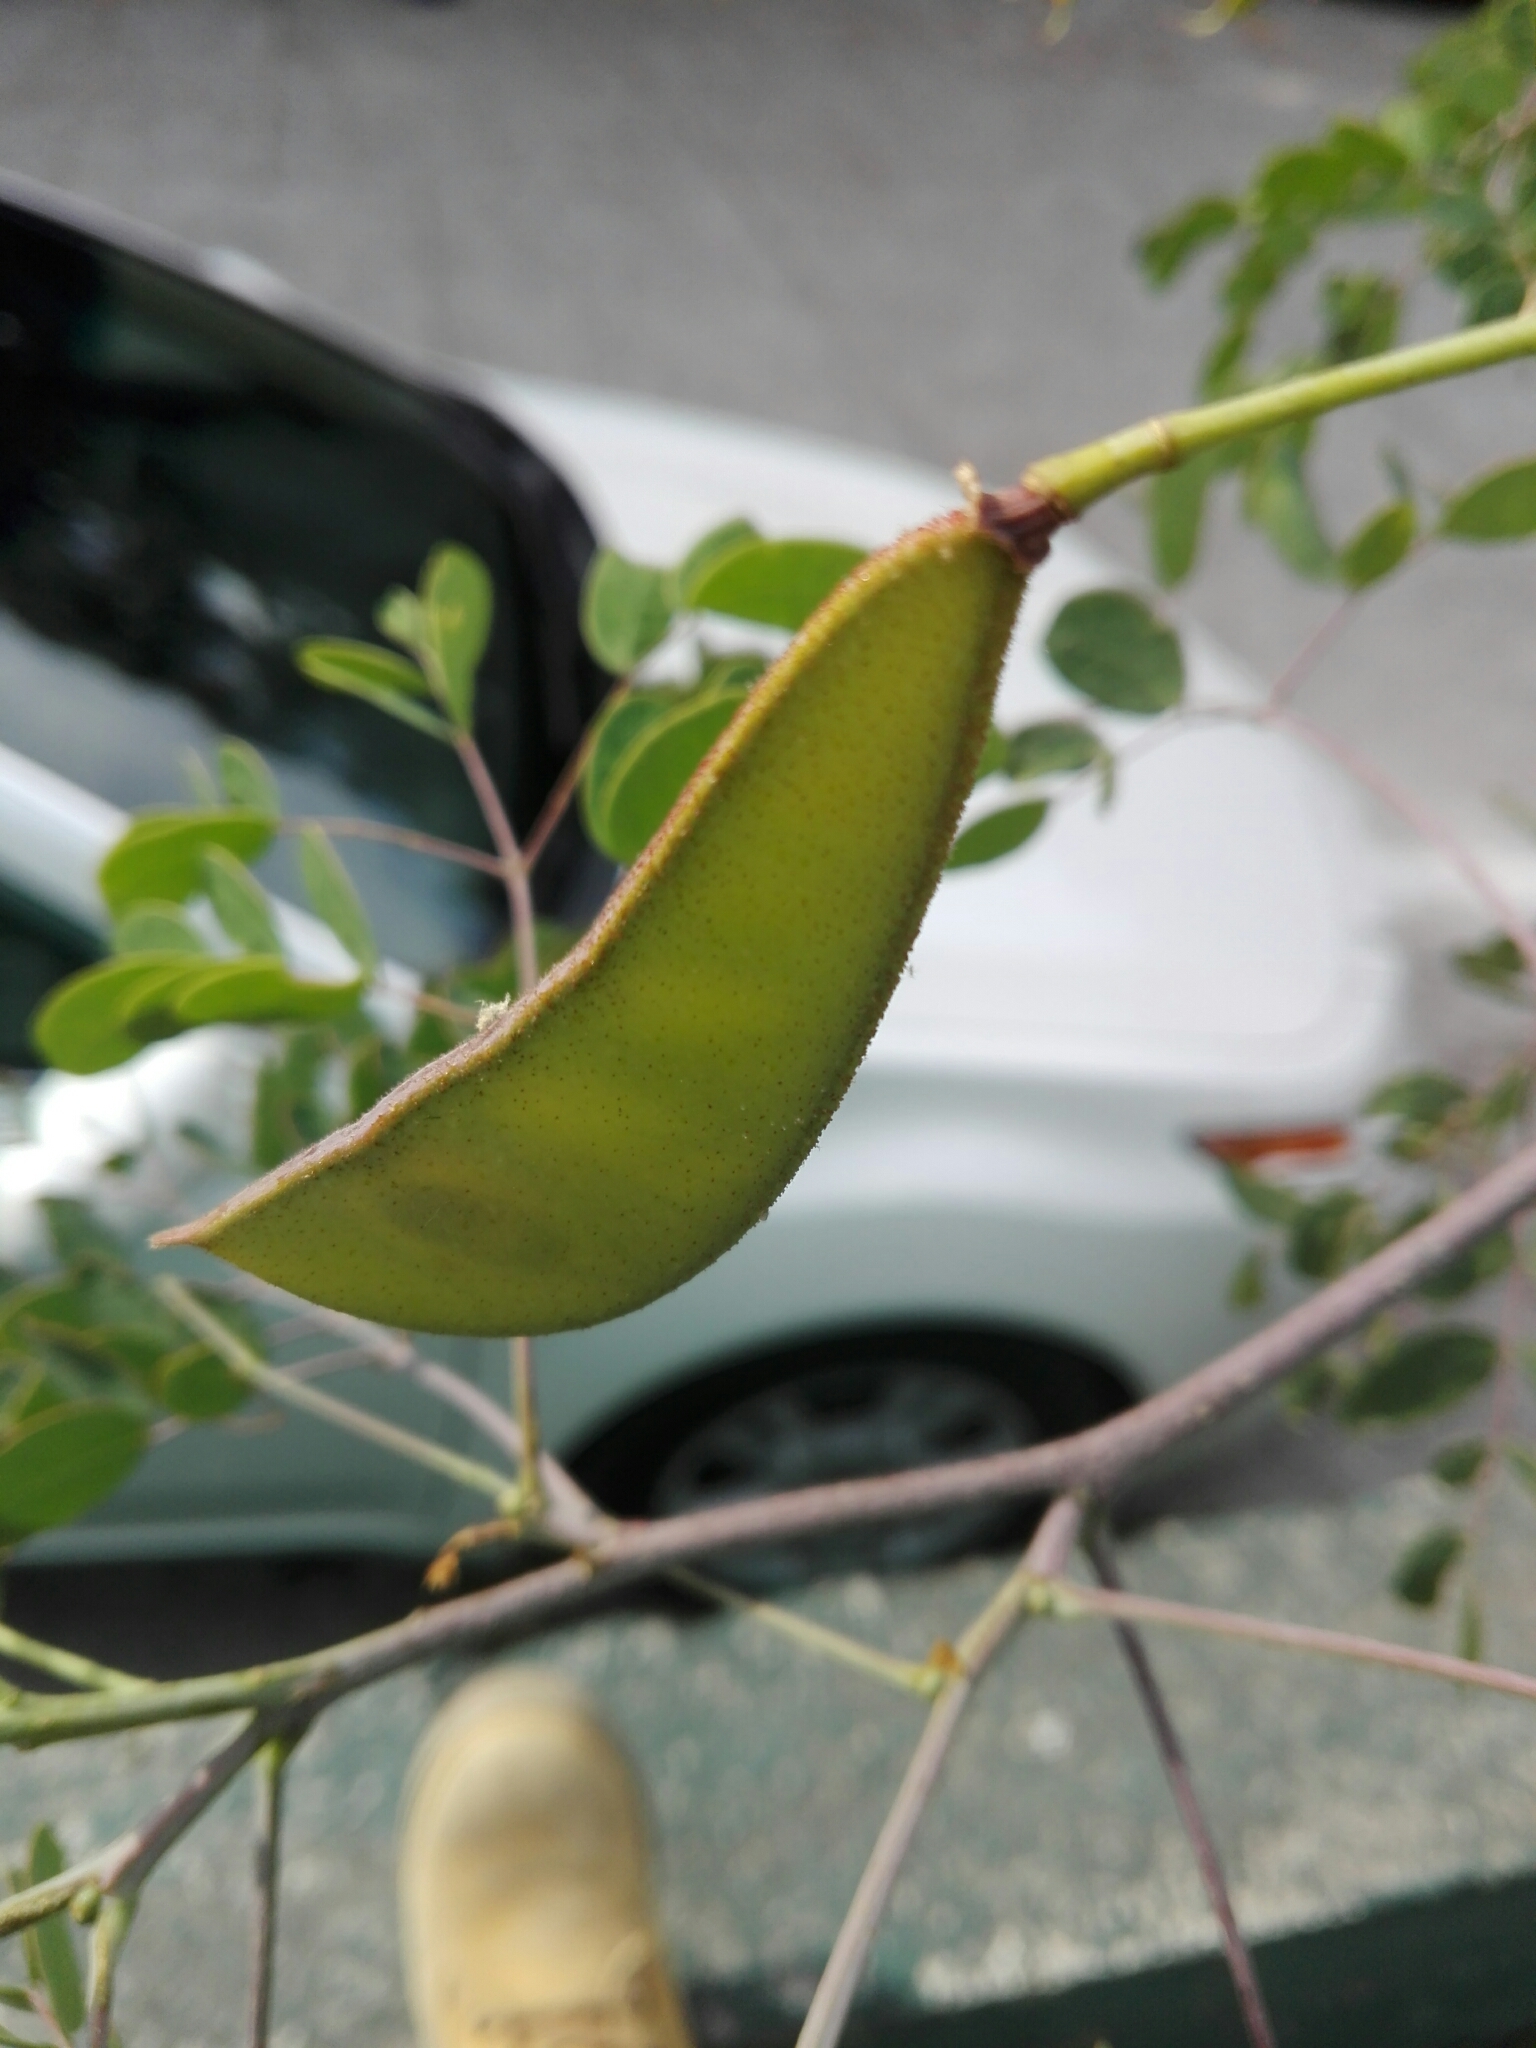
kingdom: Plantae
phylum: Tracheophyta
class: Magnoliopsida
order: Fabales
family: Fabaceae
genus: Erythrostemon
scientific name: Erythrostemon mexicanus
